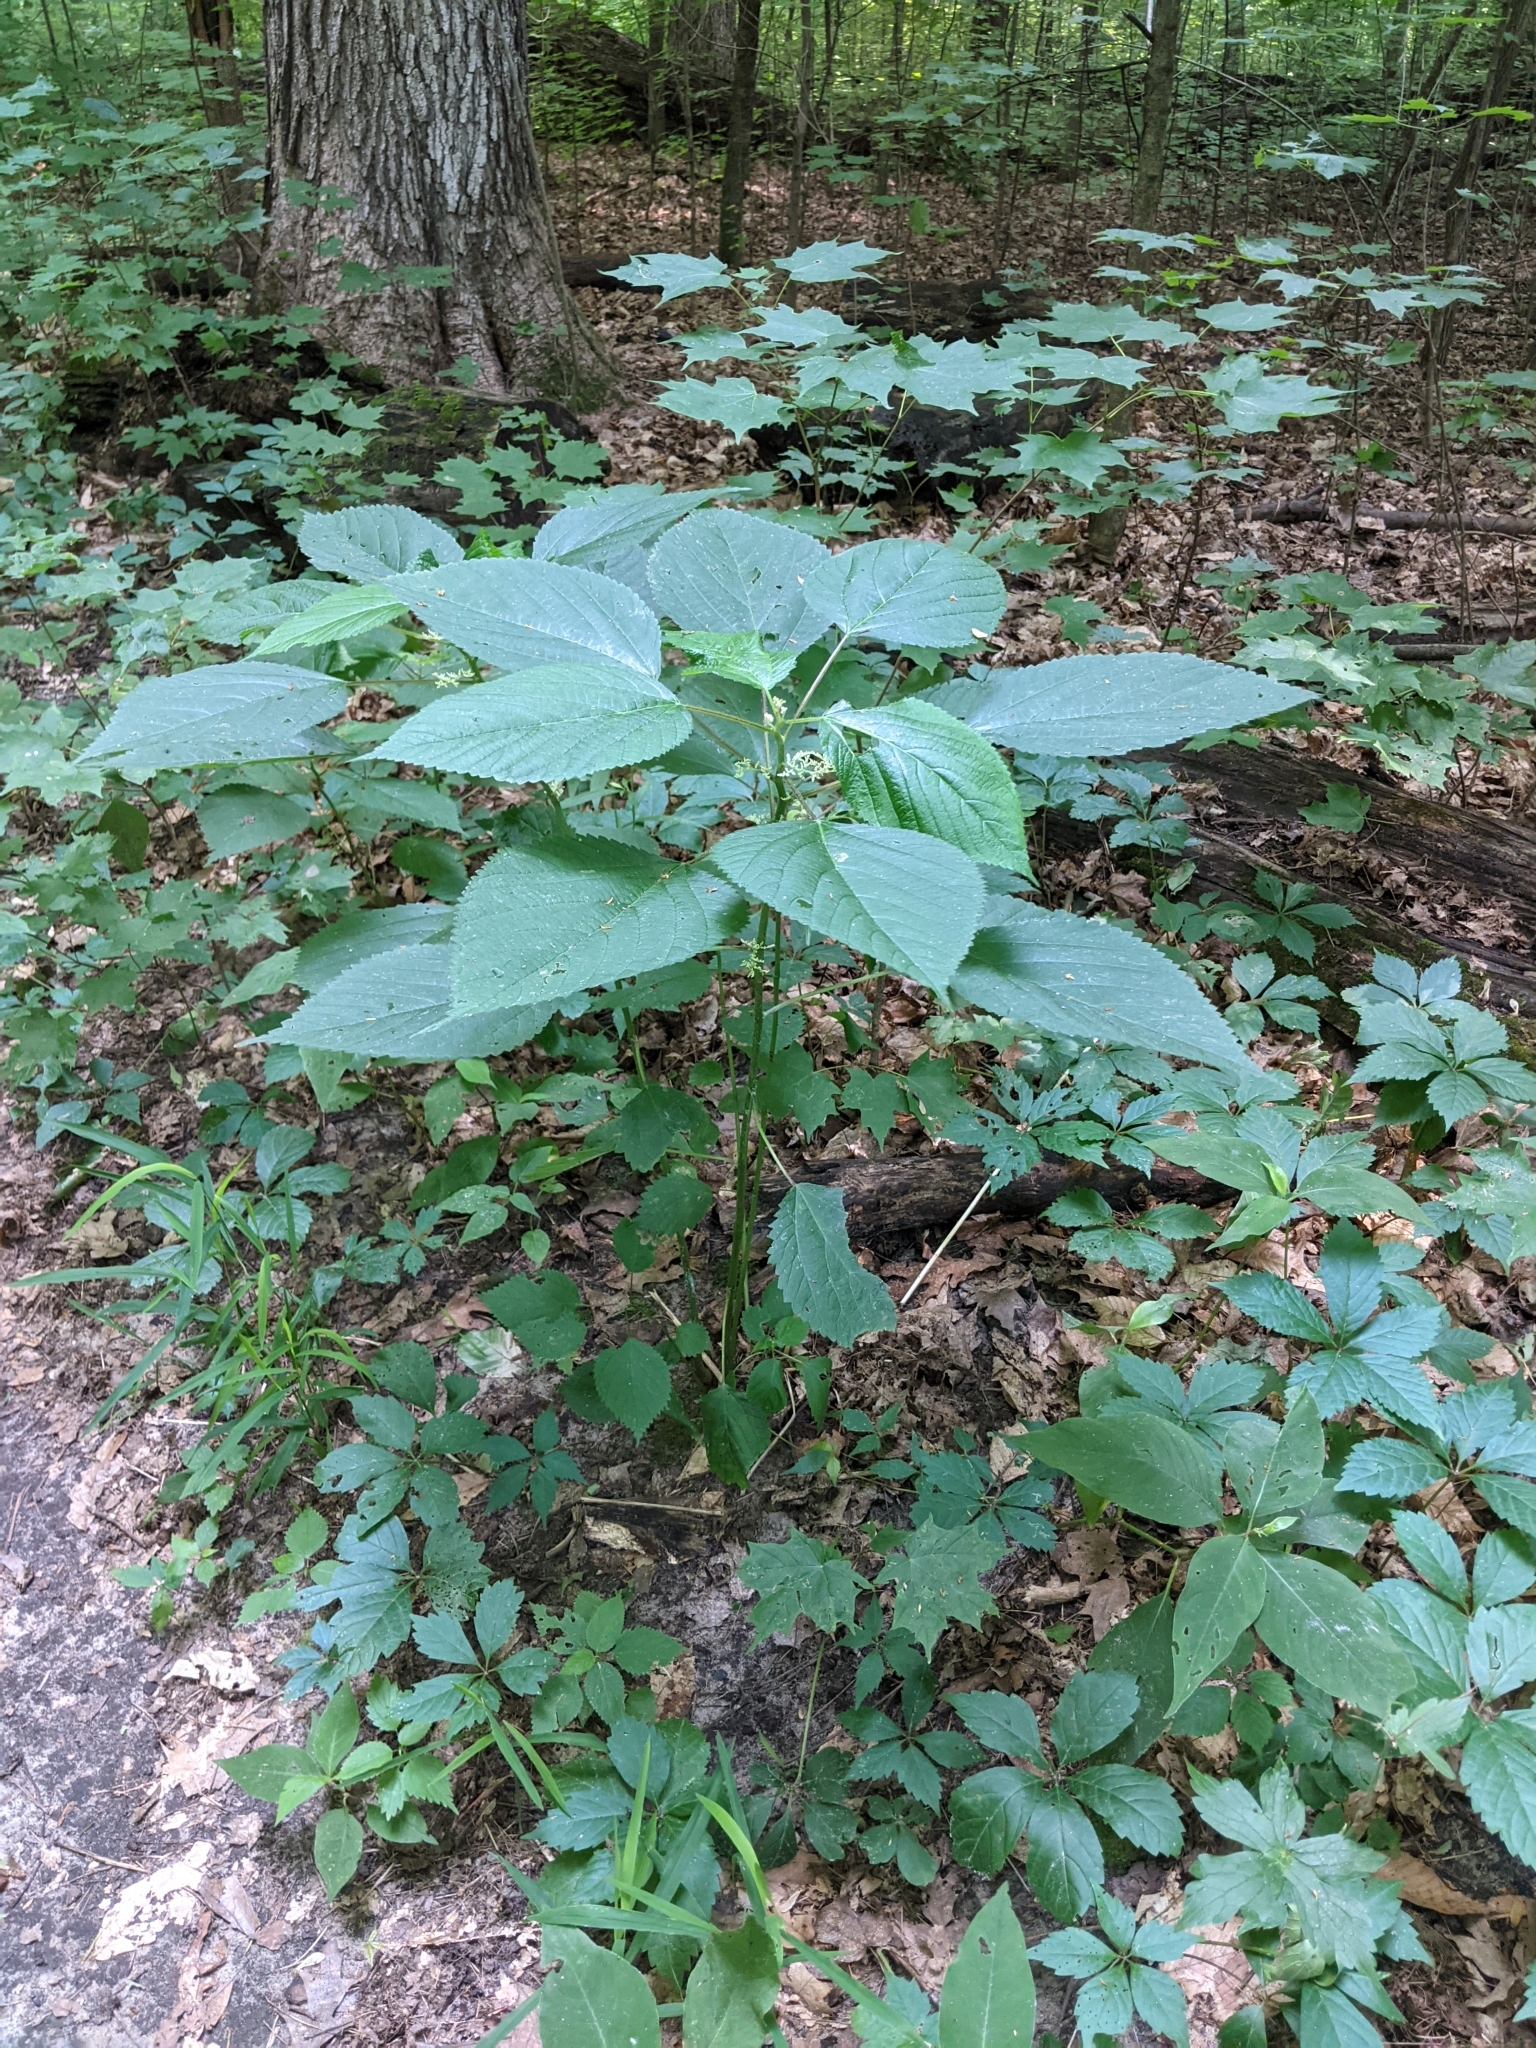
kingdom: Plantae
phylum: Tracheophyta
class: Magnoliopsida
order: Rosales
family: Urticaceae
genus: Laportea
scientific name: Laportea canadensis
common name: Canada nettle
